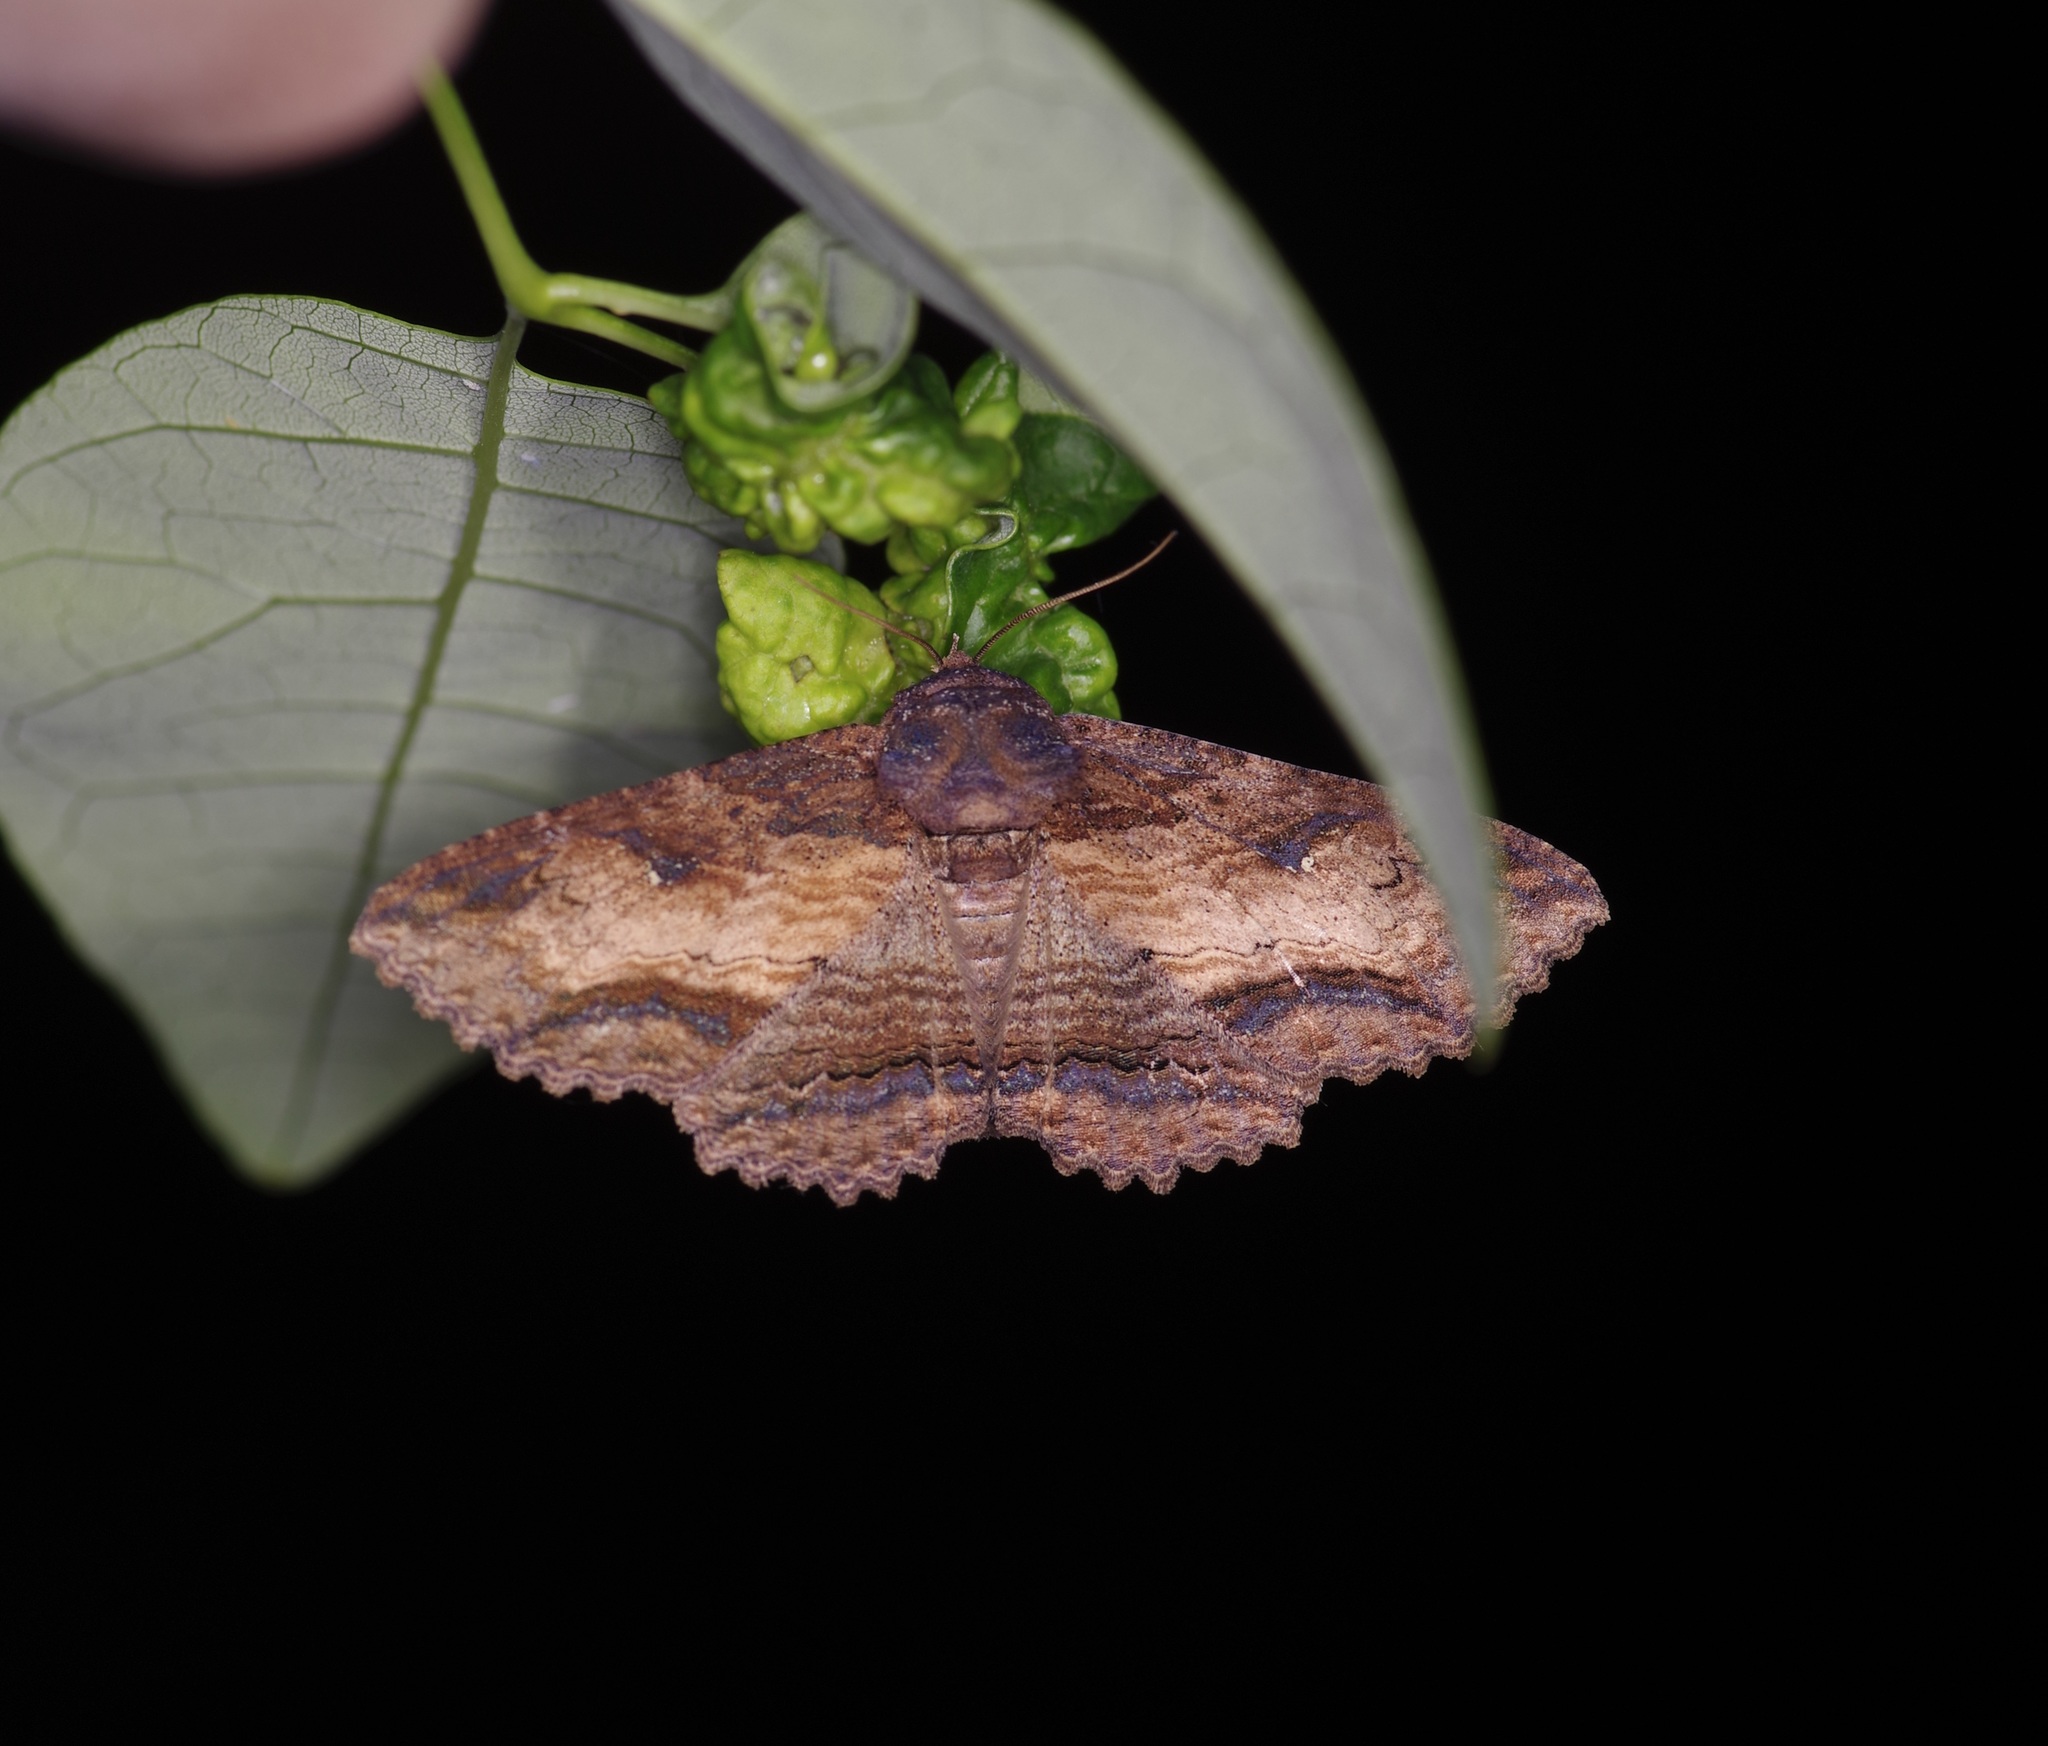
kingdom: Animalia
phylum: Arthropoda
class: Insecta
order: Lepidoptera
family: Erebidae
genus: Zale
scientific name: Zale lunata
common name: Lunate zale moth
